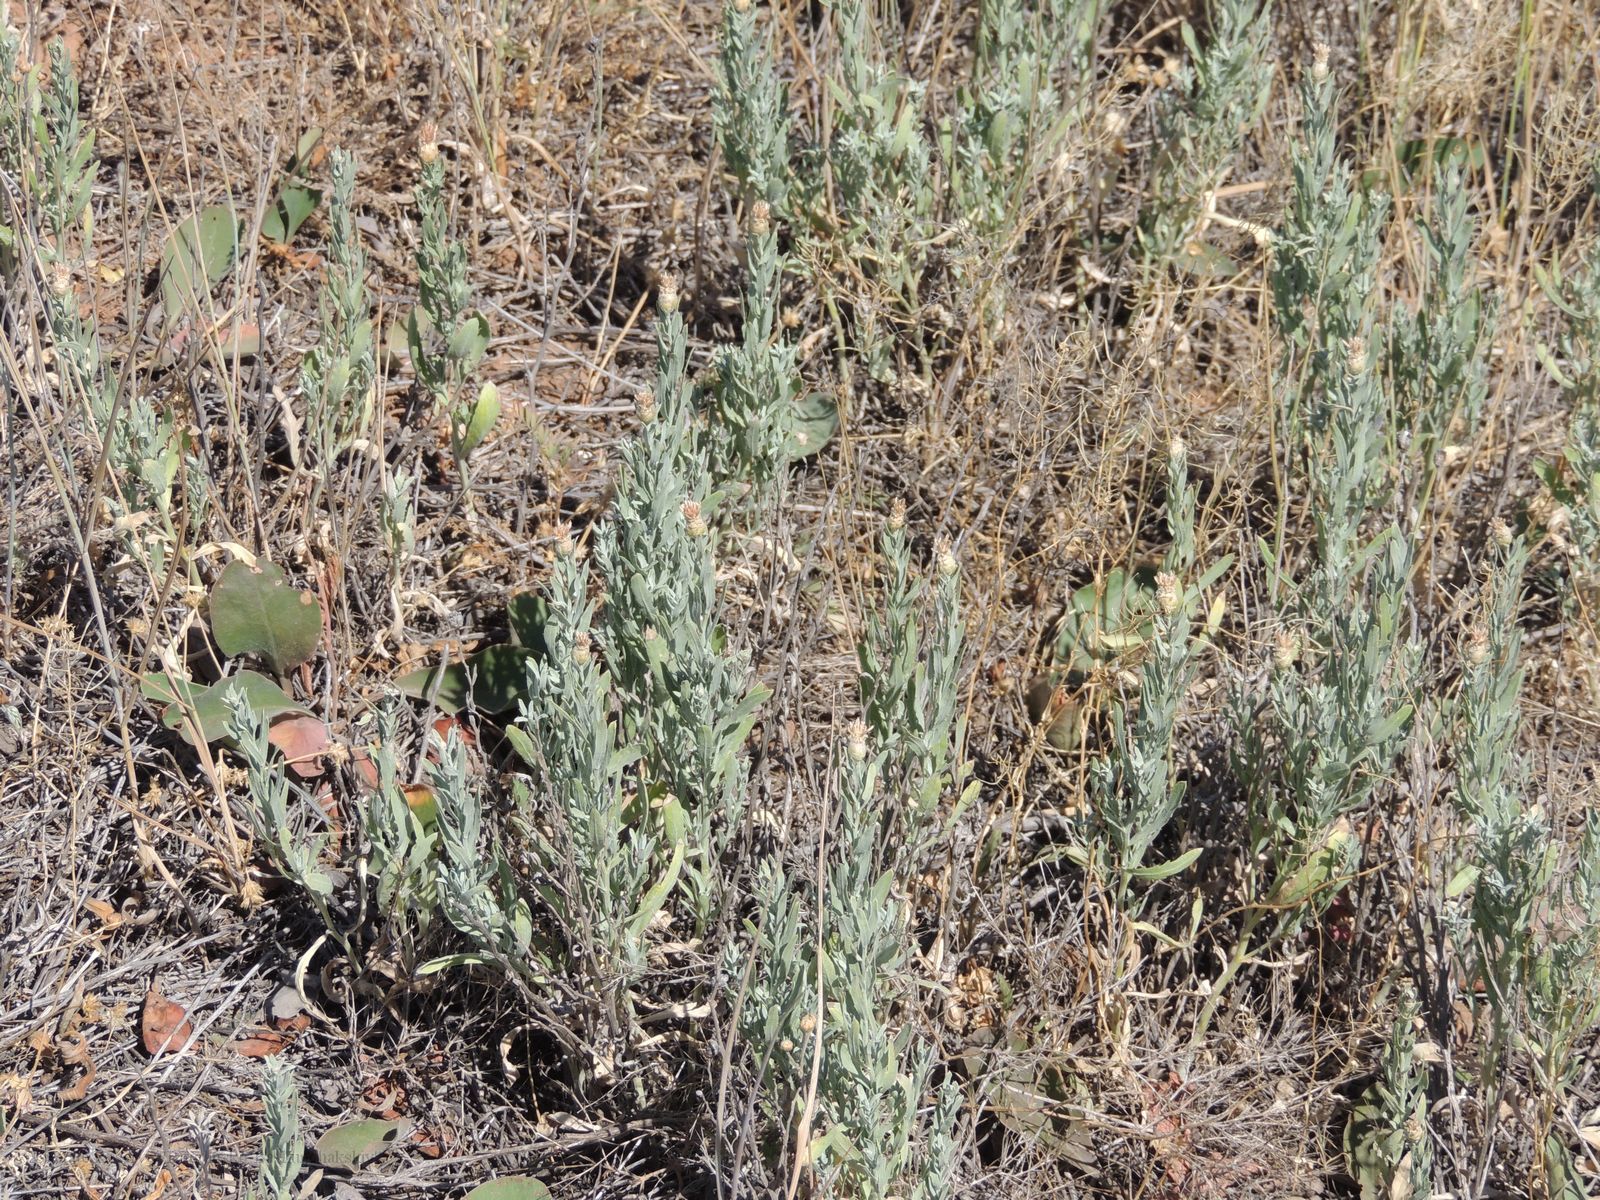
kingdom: Plantae
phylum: Tracheophyta
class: Magnoliopsida
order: Asterales
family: Asteraceae
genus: Leuzea
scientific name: Leuzea repens
